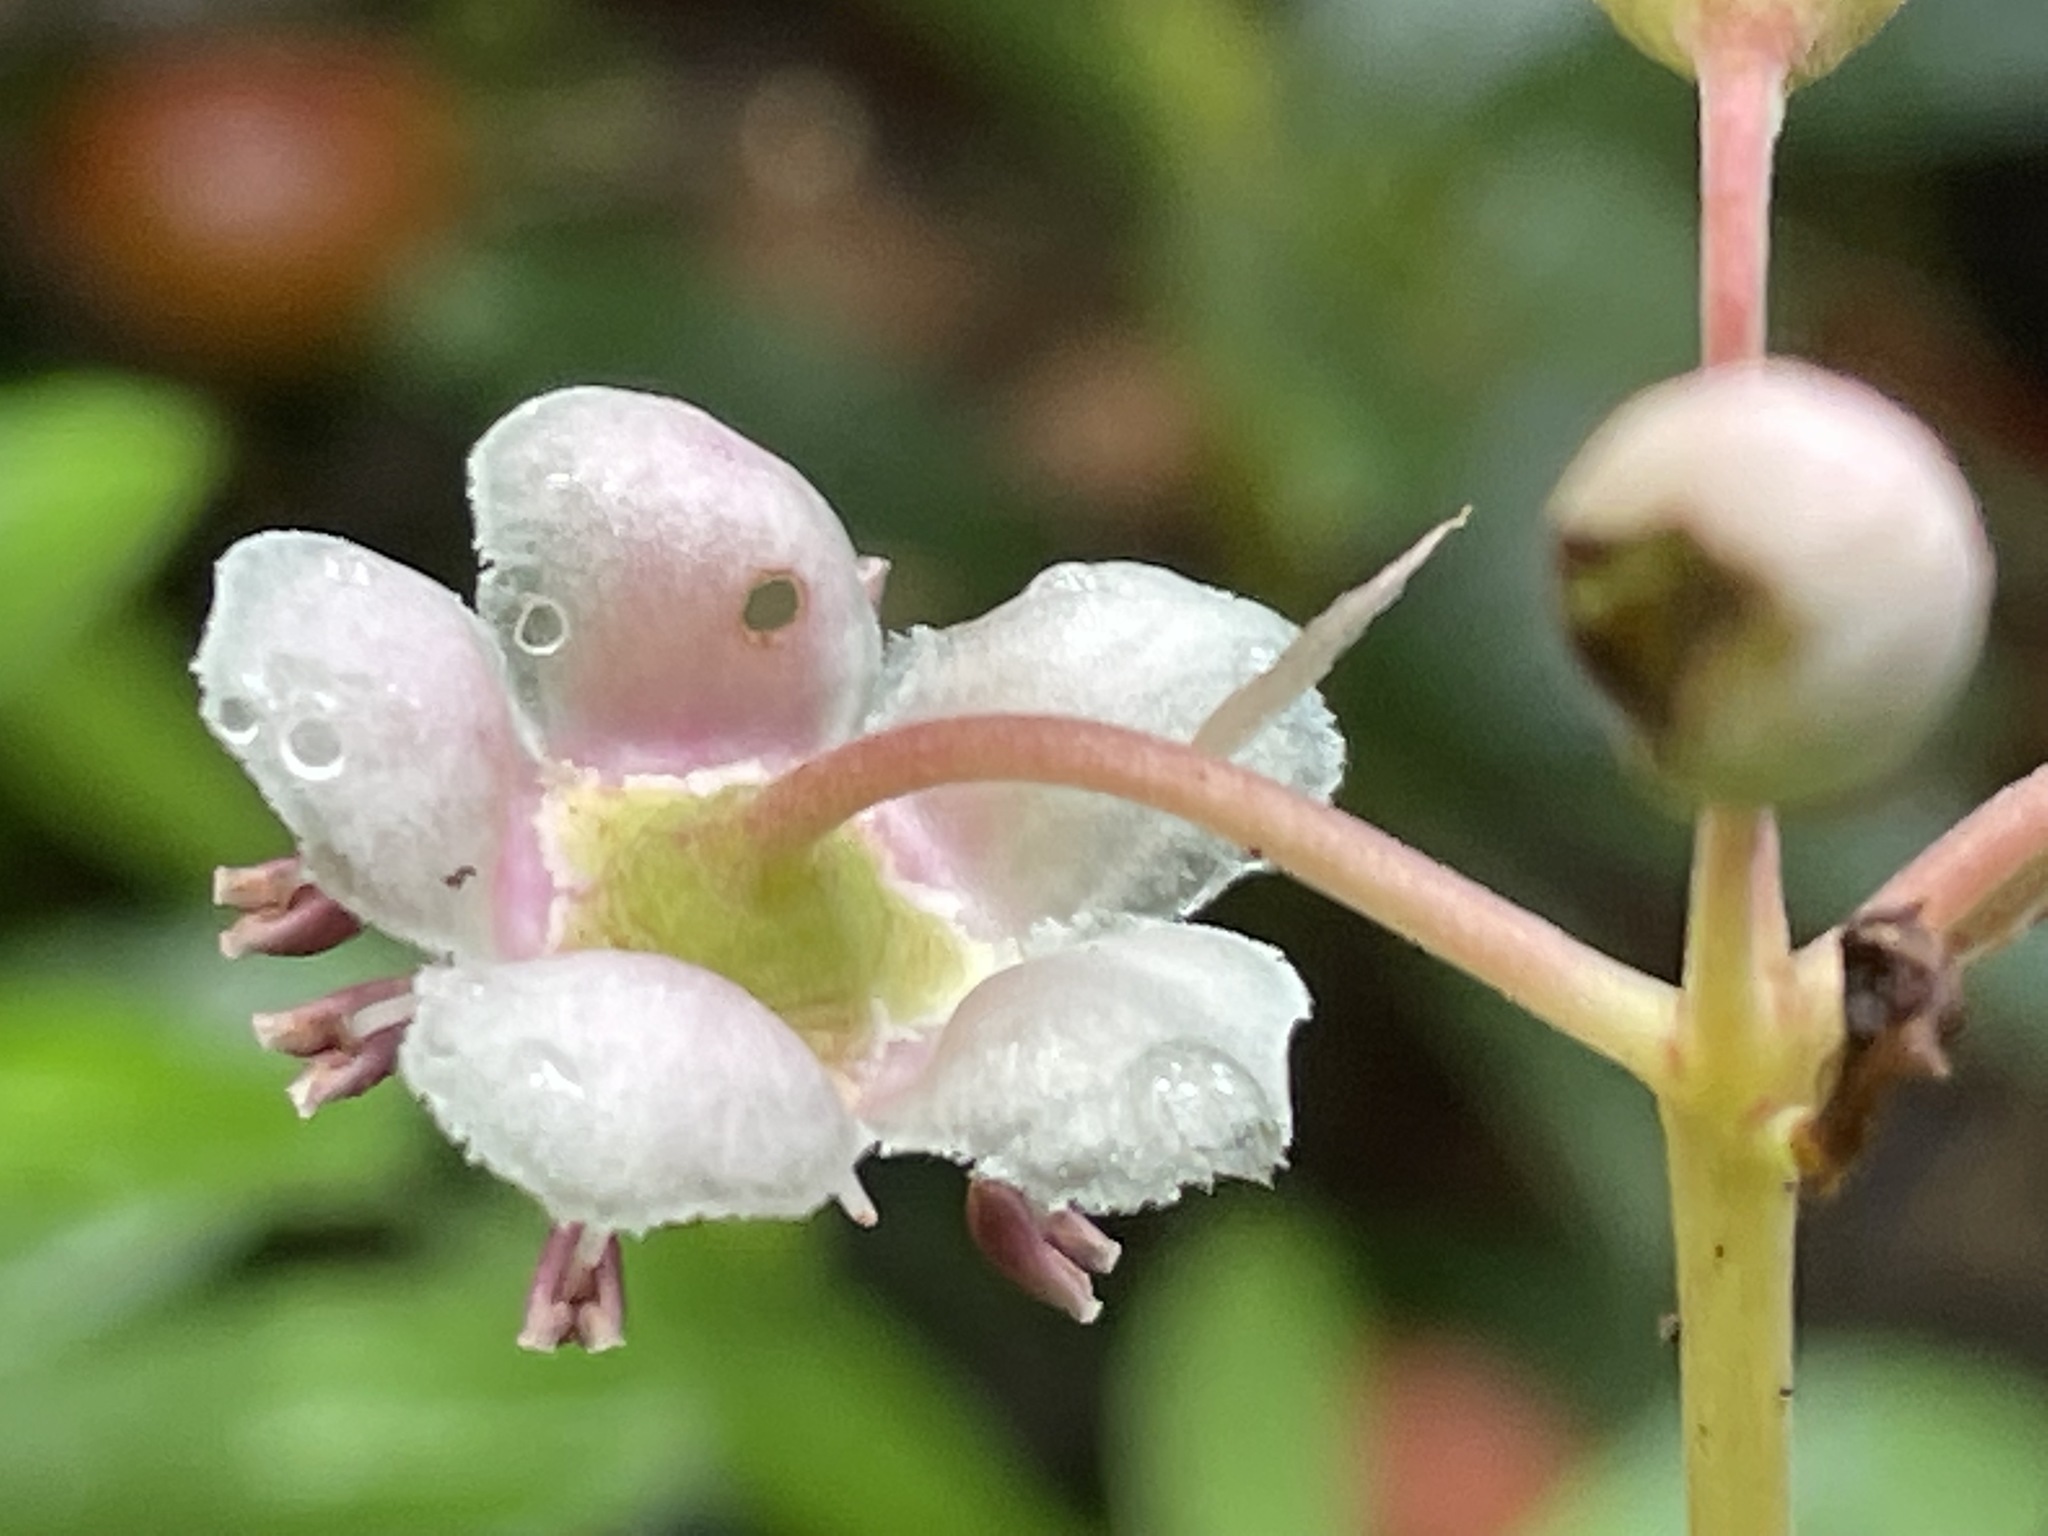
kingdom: Plantae
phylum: Tracheophyta
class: Magnoliopsida
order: Ericales
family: Ericaceae
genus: Chimaphila
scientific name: Chimaphila umbellata
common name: Pipsissewa
